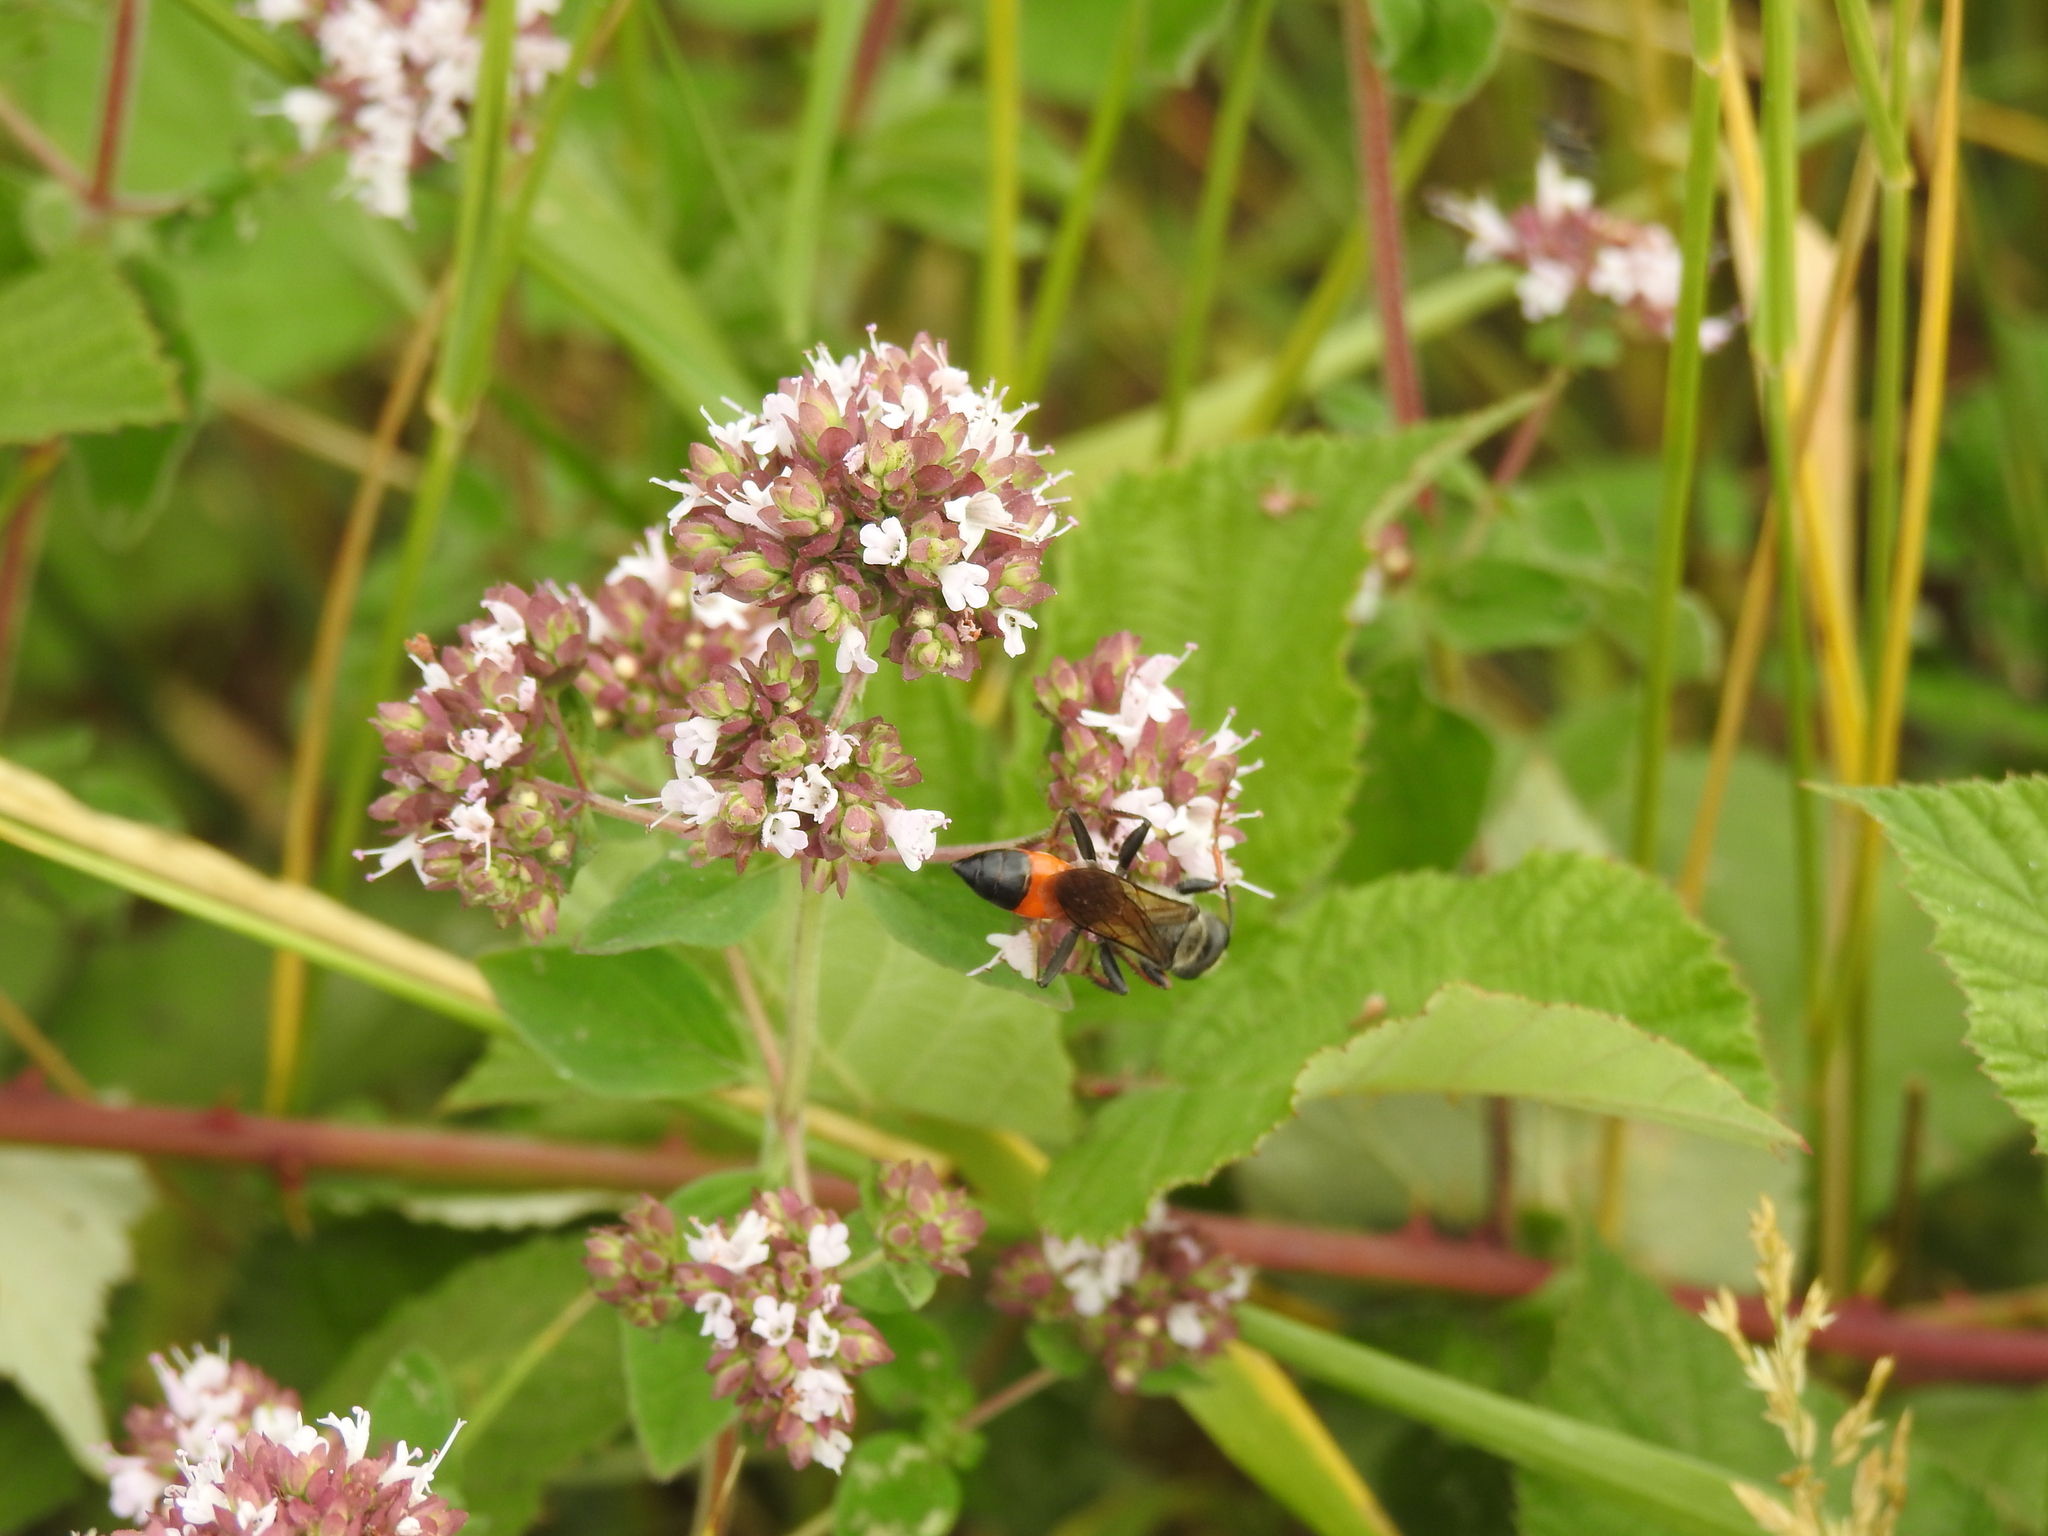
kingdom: Animalia
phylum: Arthropoda
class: Insecta
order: Hymenoptera
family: Sphecidae
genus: Sphex
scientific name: Sphex funerarius
